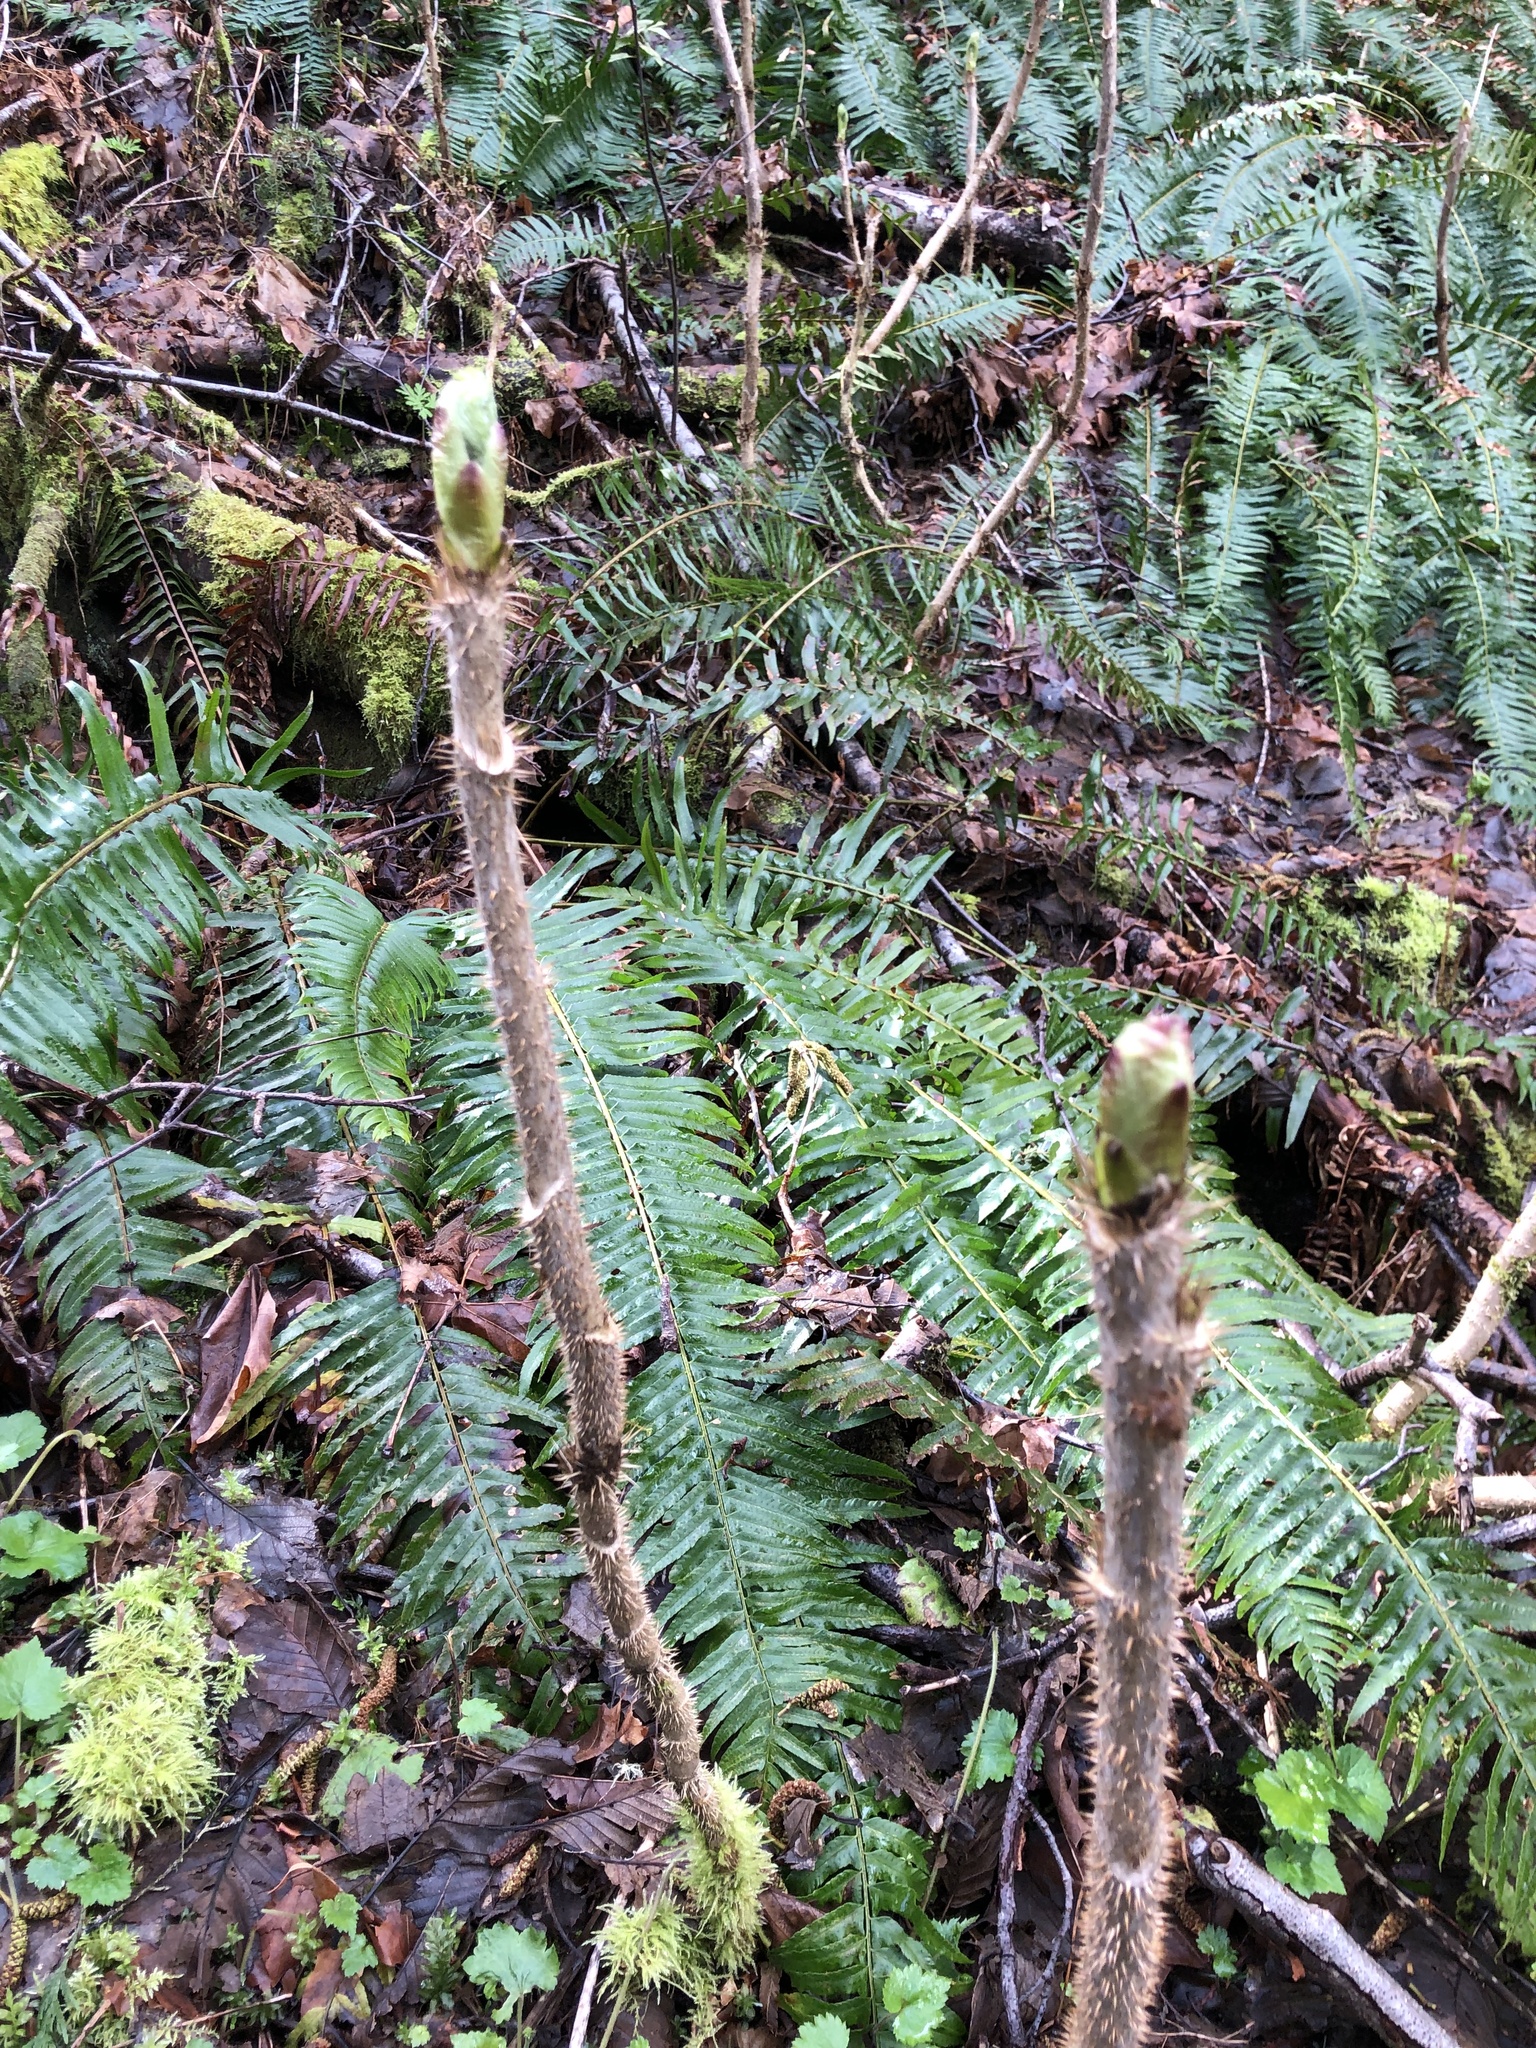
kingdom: Plantae
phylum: Tracheophyta
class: Magnoliopsida
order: Apiales
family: Araliaceae
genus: Oplopanax
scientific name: Oplopanax horridus
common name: Devil's walking-stick
